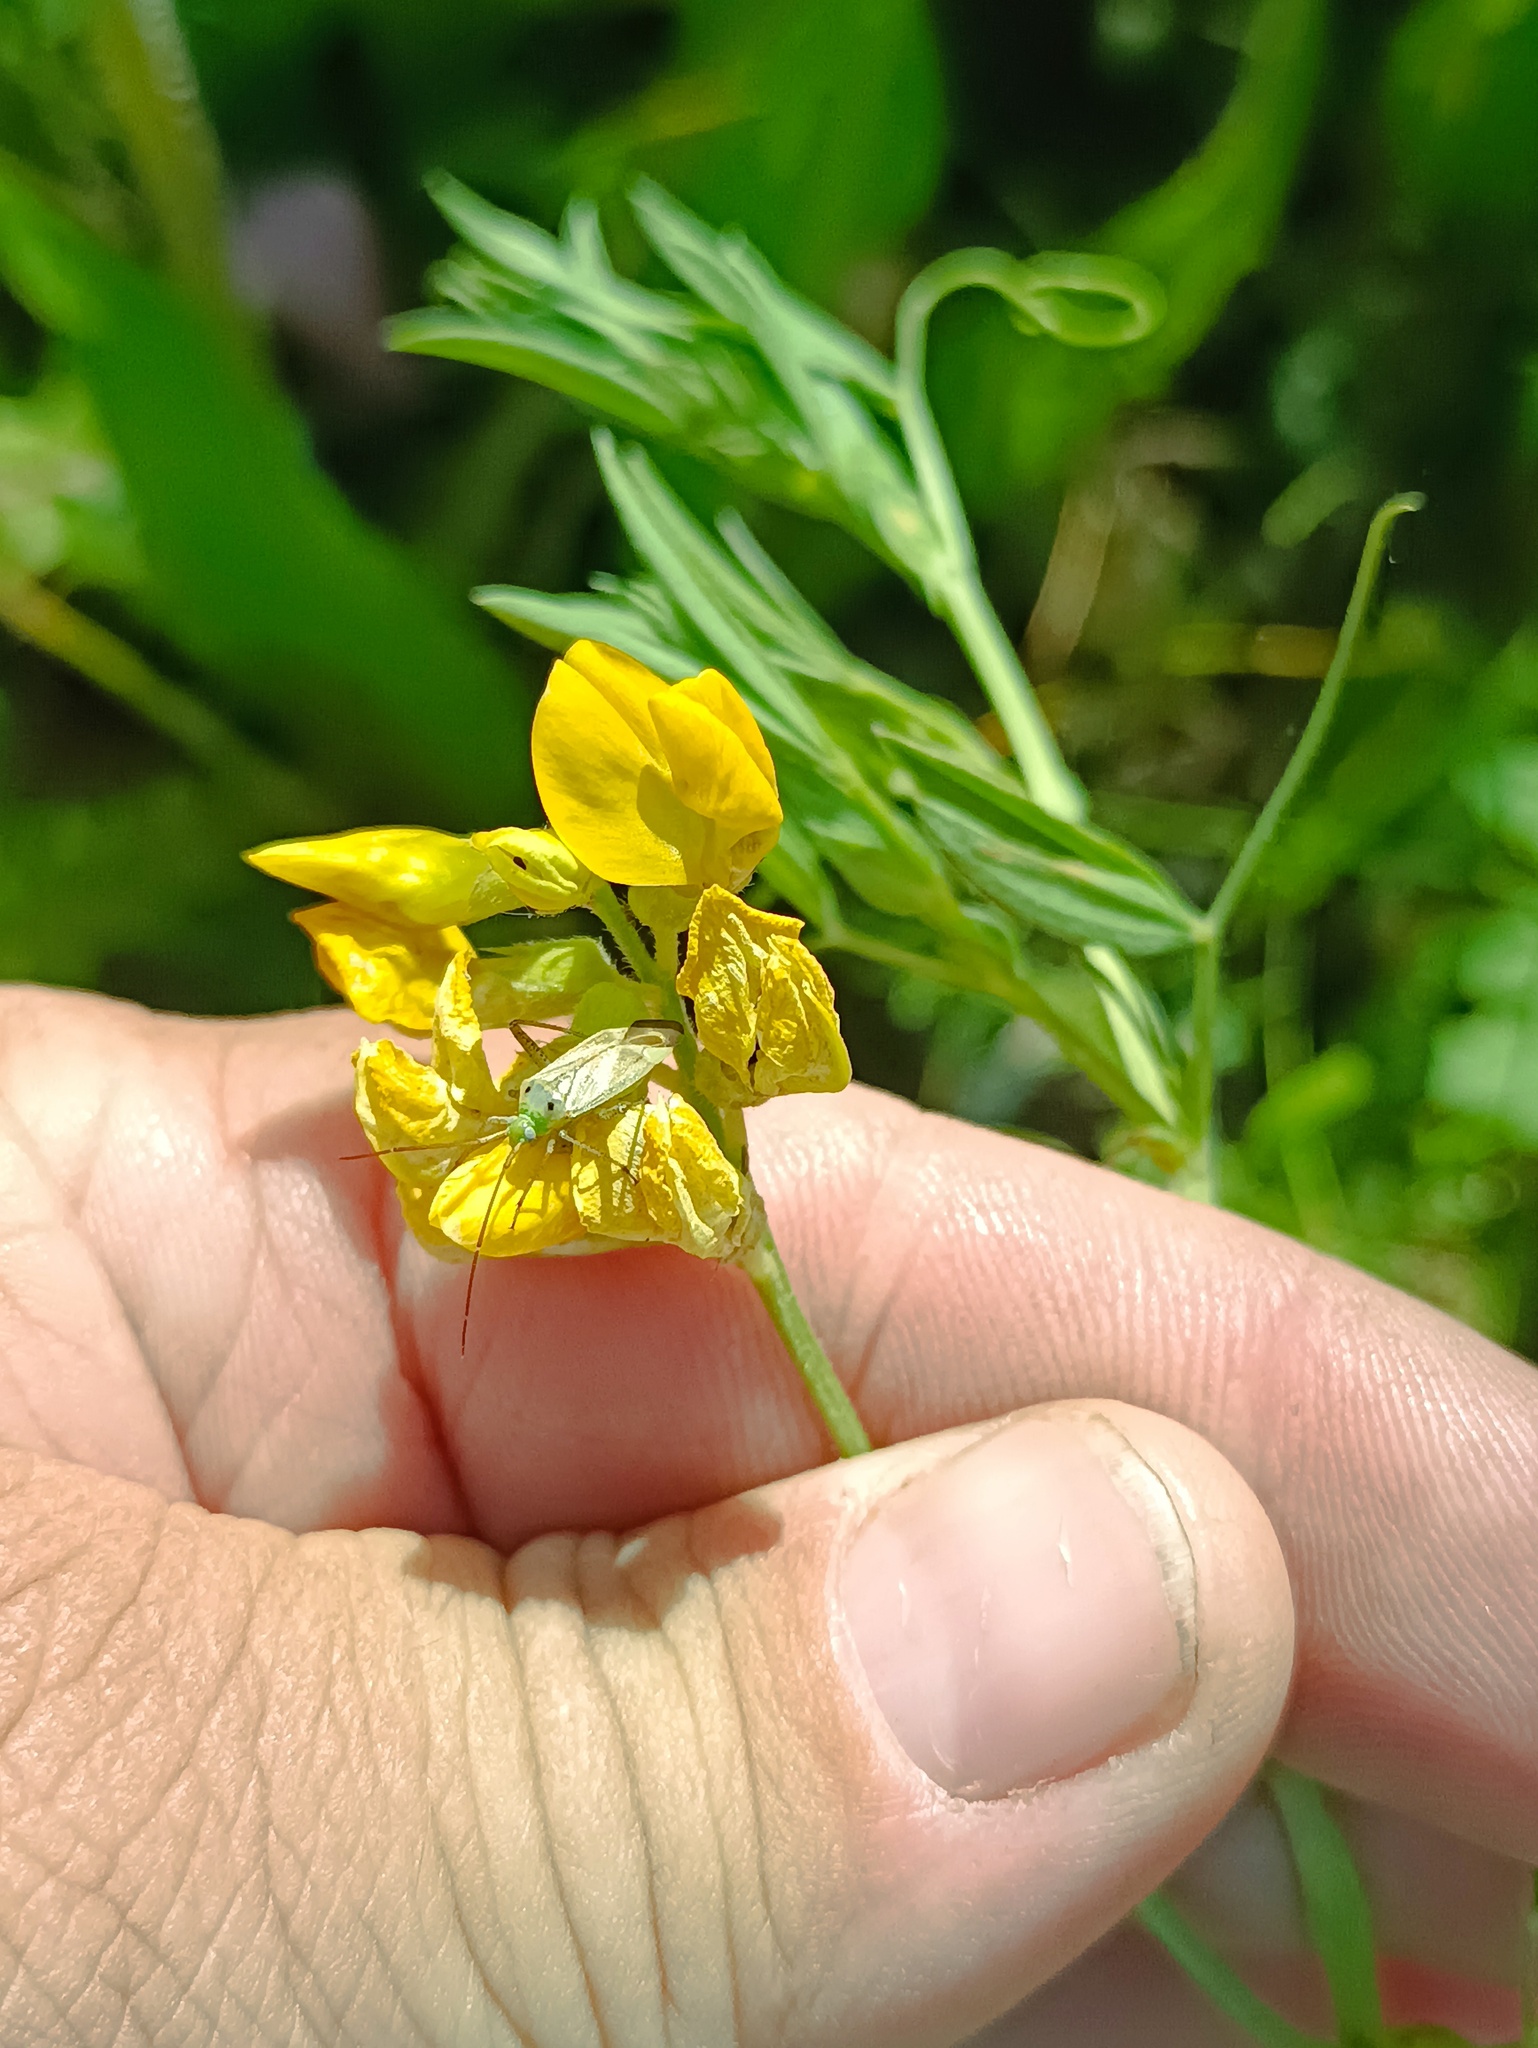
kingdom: Plantae
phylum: Tracheophyta
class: Magnoliopsida
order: Fabales
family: Fabaceae
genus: Lathyrus
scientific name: Lathyrus pratensis
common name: Meadow vetchling
